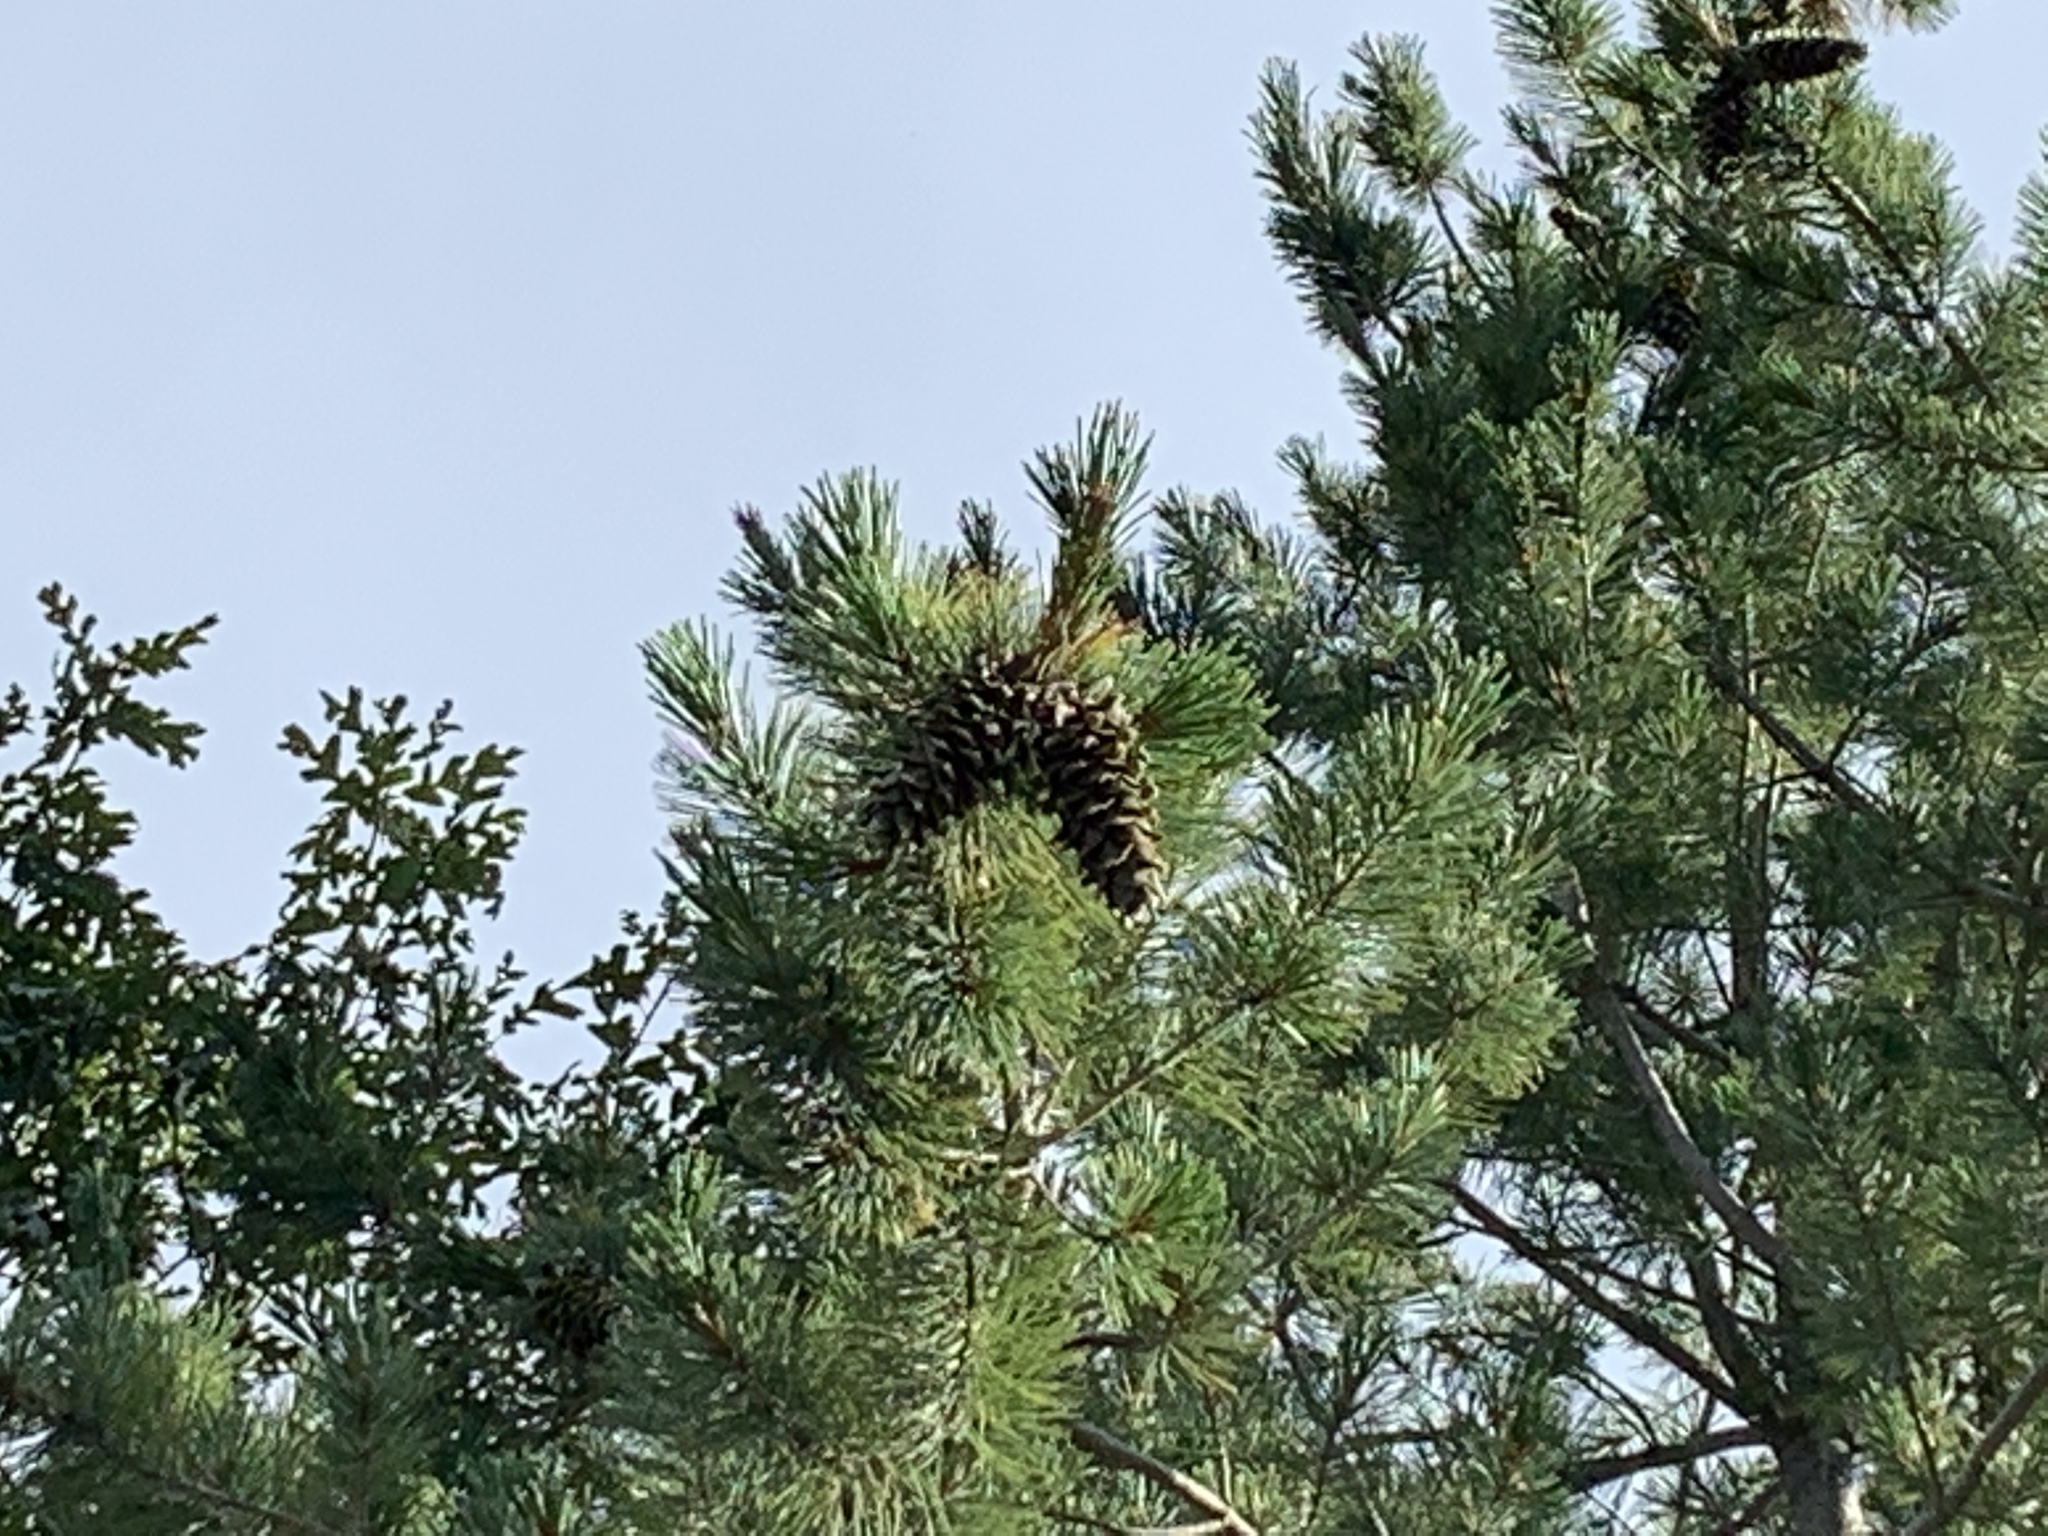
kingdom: Plantae
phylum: Tracheophyta
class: Pinopsida
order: Pinales
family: Pinaceae
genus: Pinus
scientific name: Pinus strobiformis
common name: Southwestern white pine
